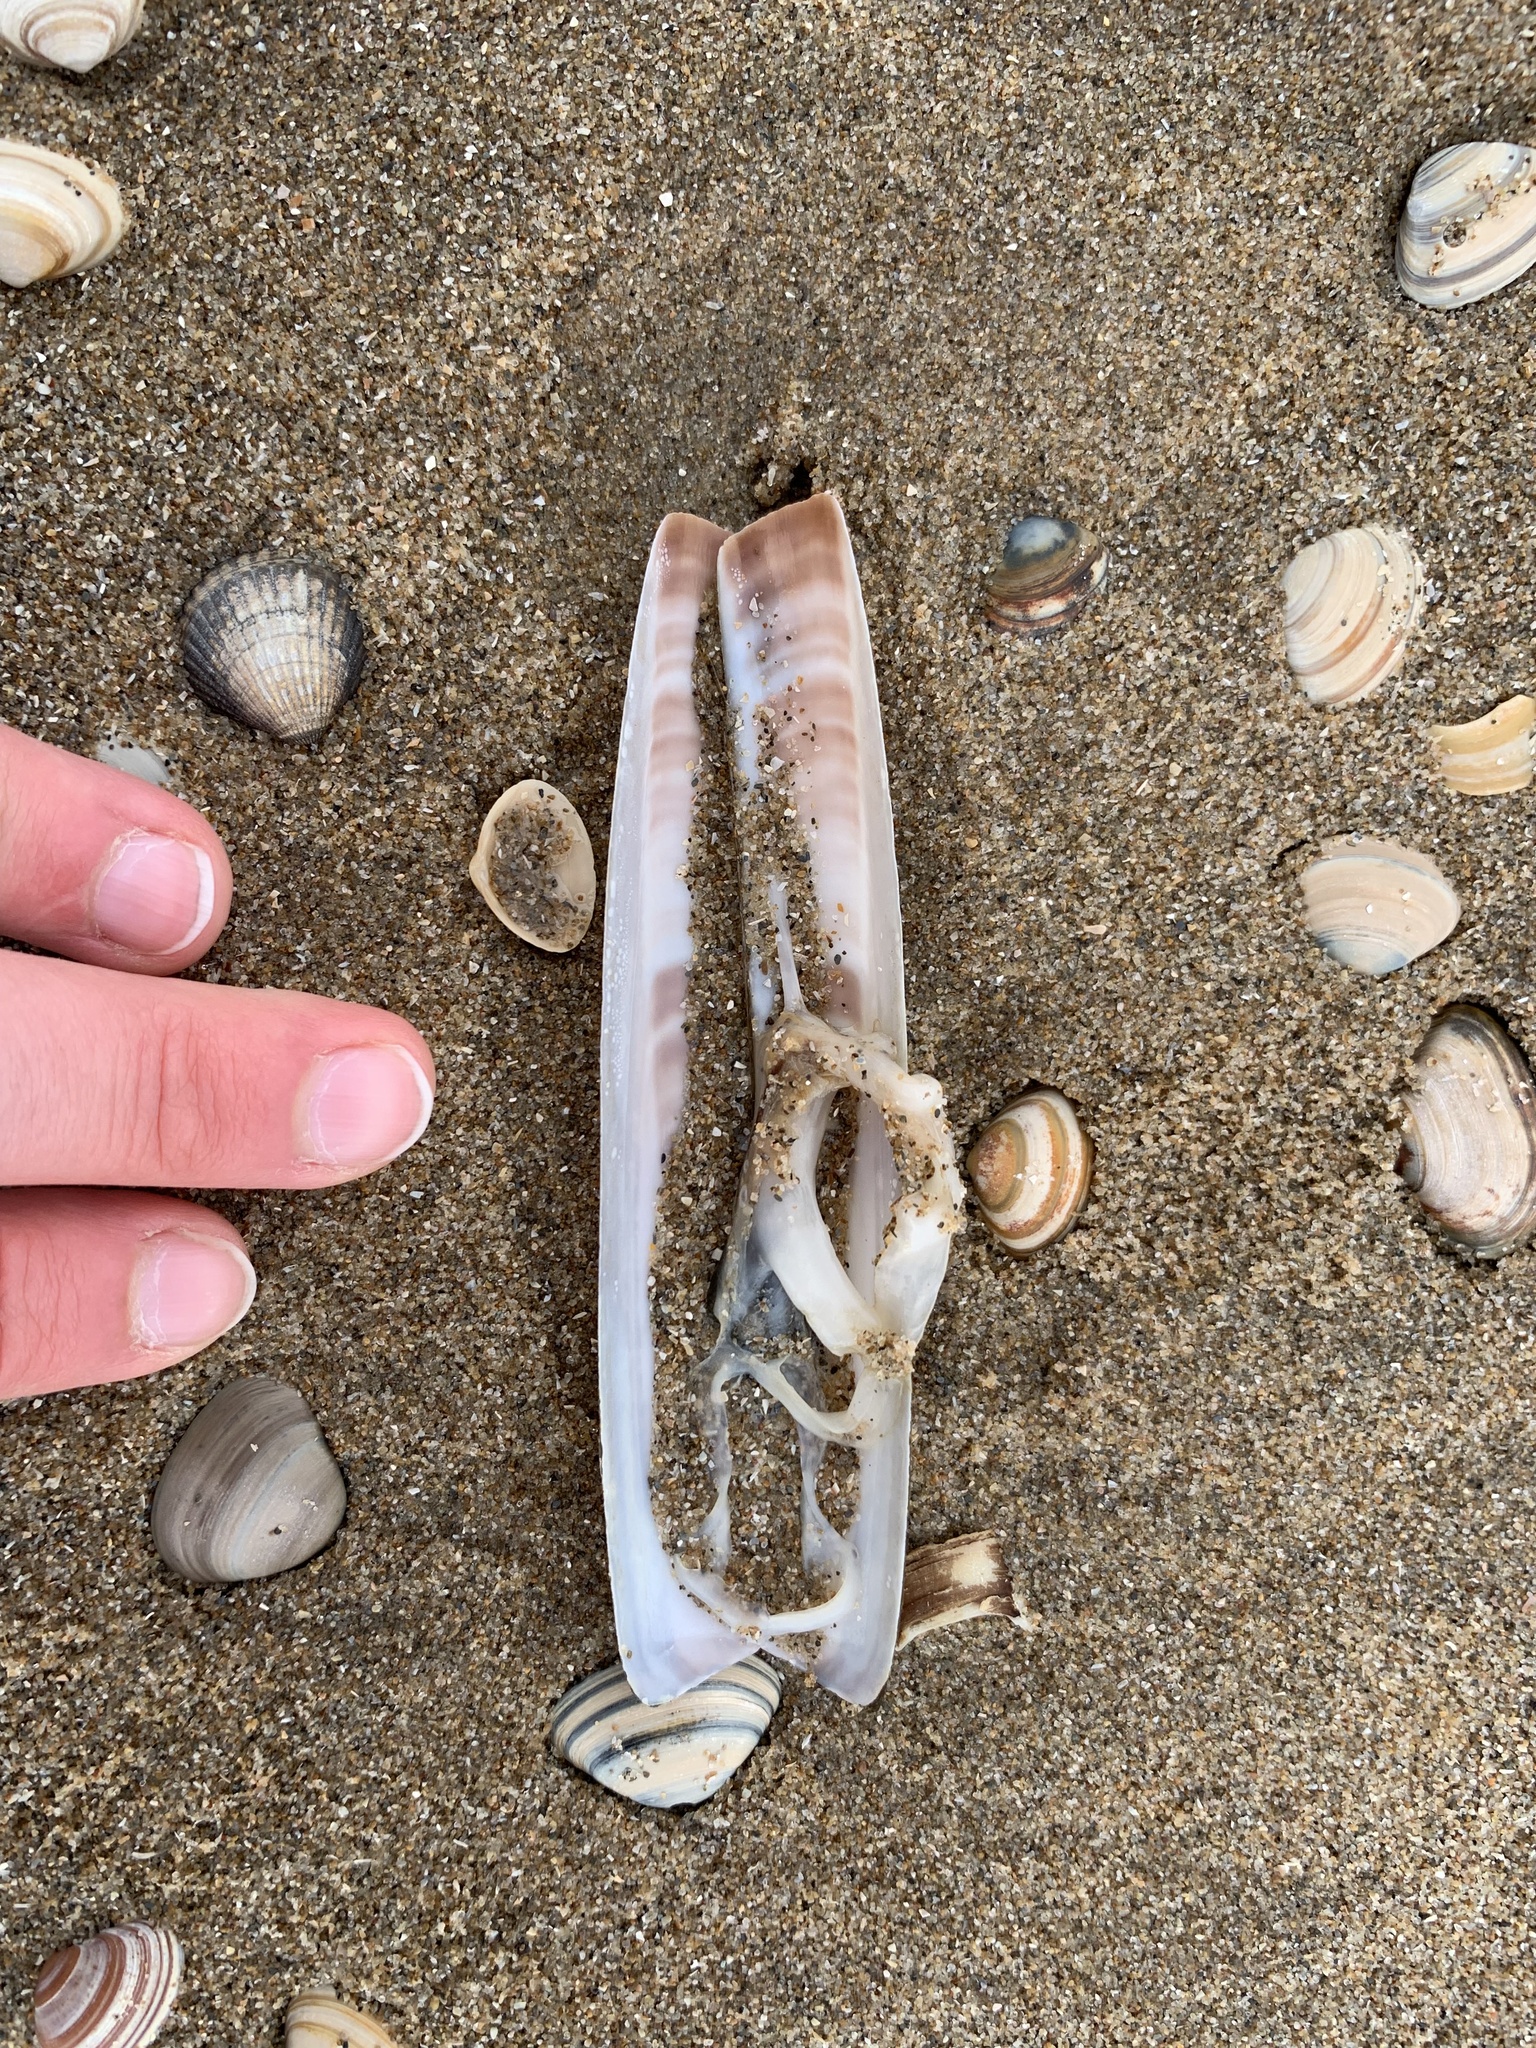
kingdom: Animalia
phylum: Mollusca
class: Bivalvia
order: Adapedonta
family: Pharidae
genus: Ensis
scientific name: Ensis leei
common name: American jack knife clam
